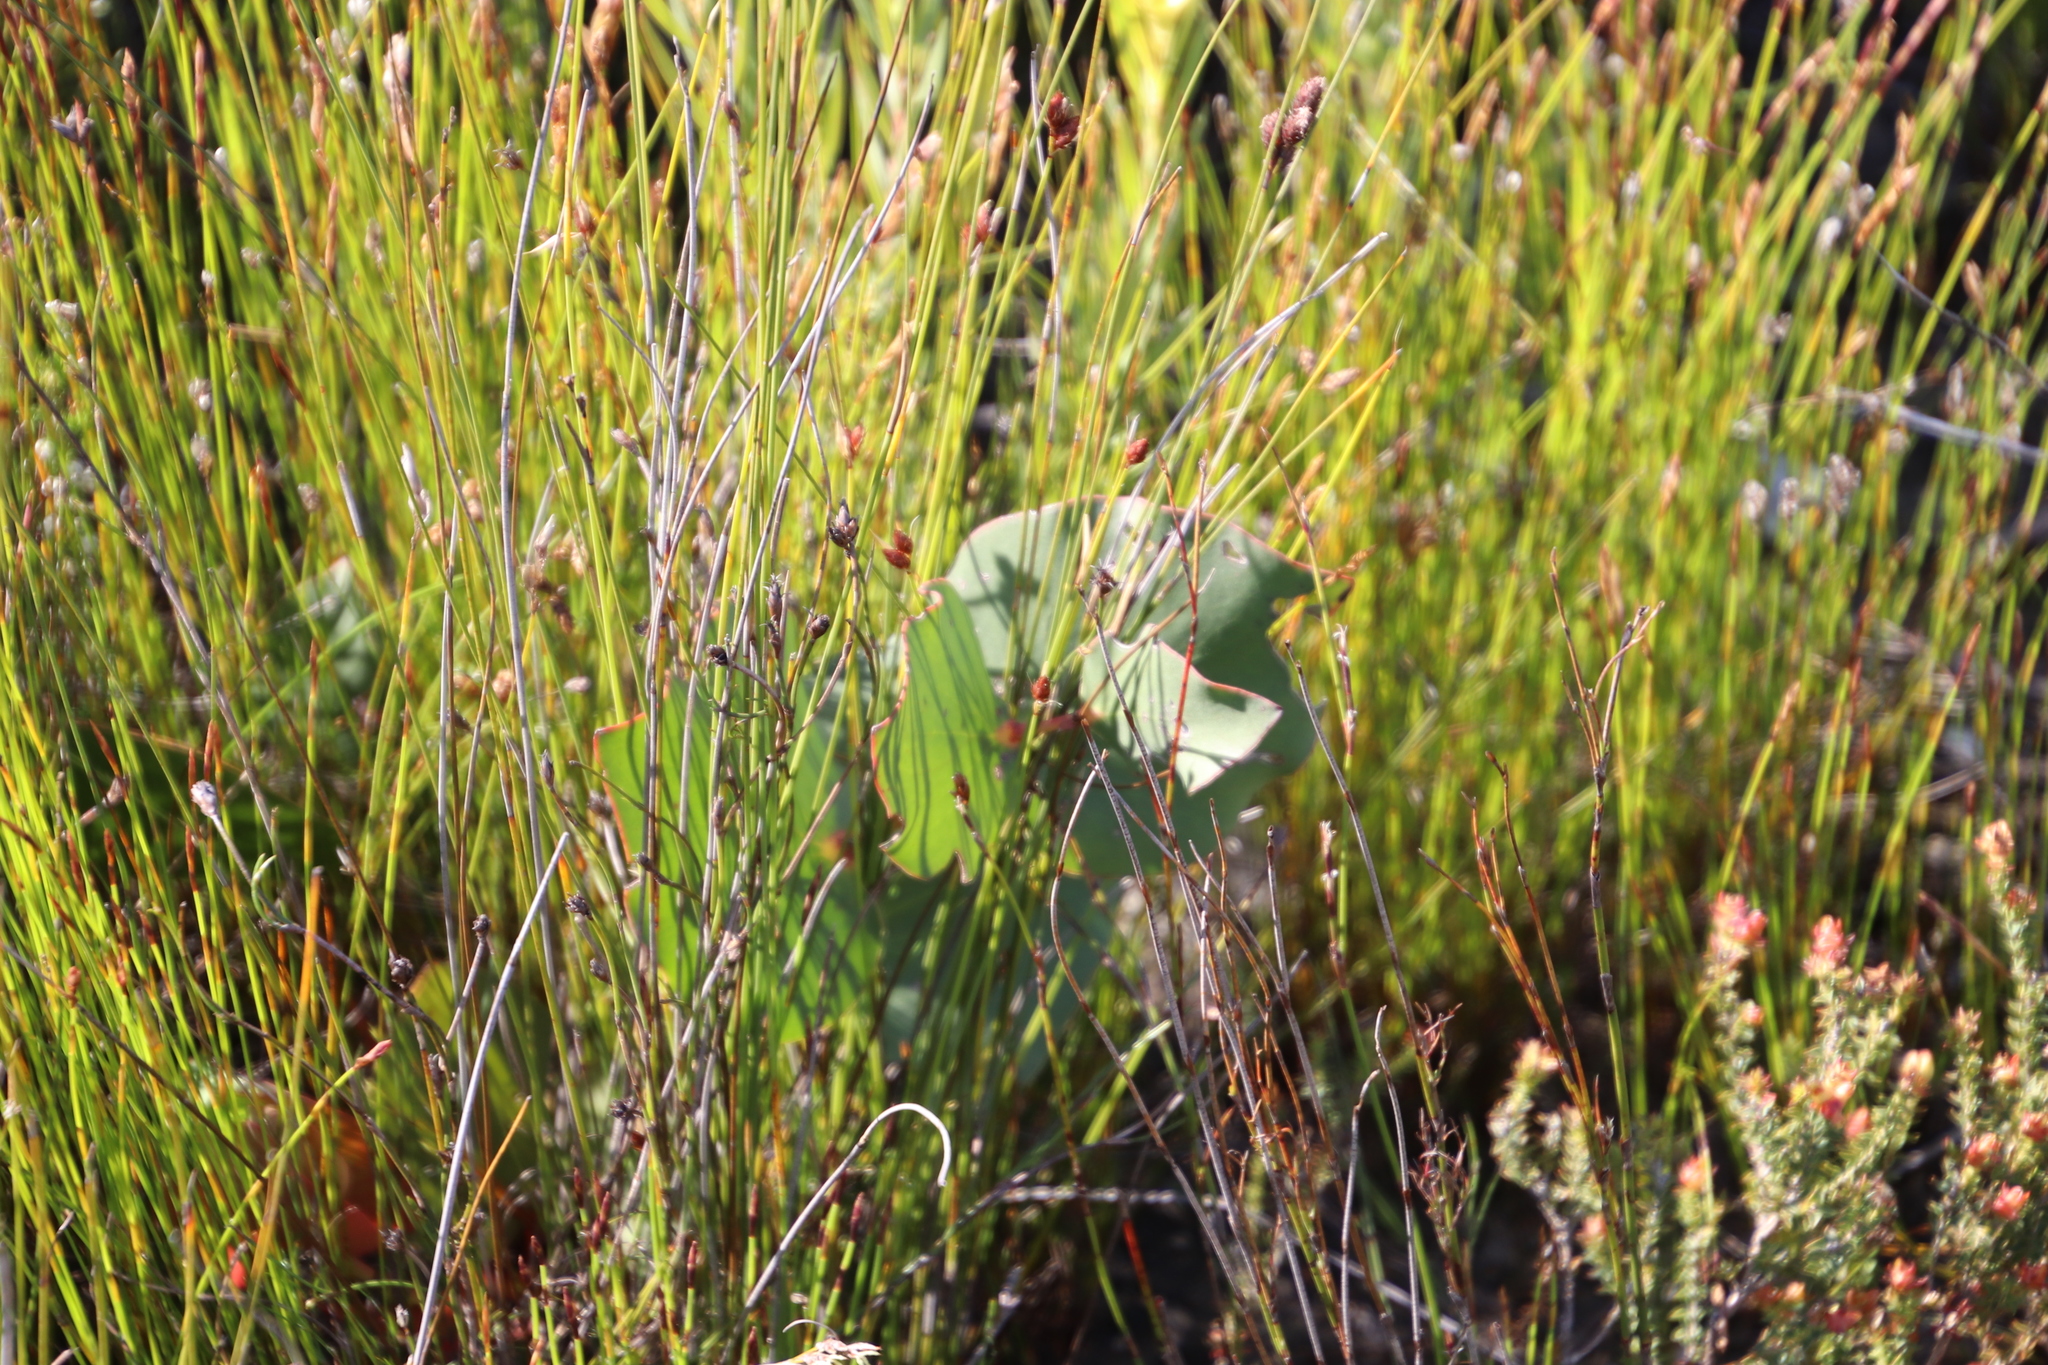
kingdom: Plantae
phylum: Tracheophyta
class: Magnoliopsida
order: Proteales
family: Proteaceae
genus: Protea
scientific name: Protea cordata
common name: Heart-leaf sugarbush
